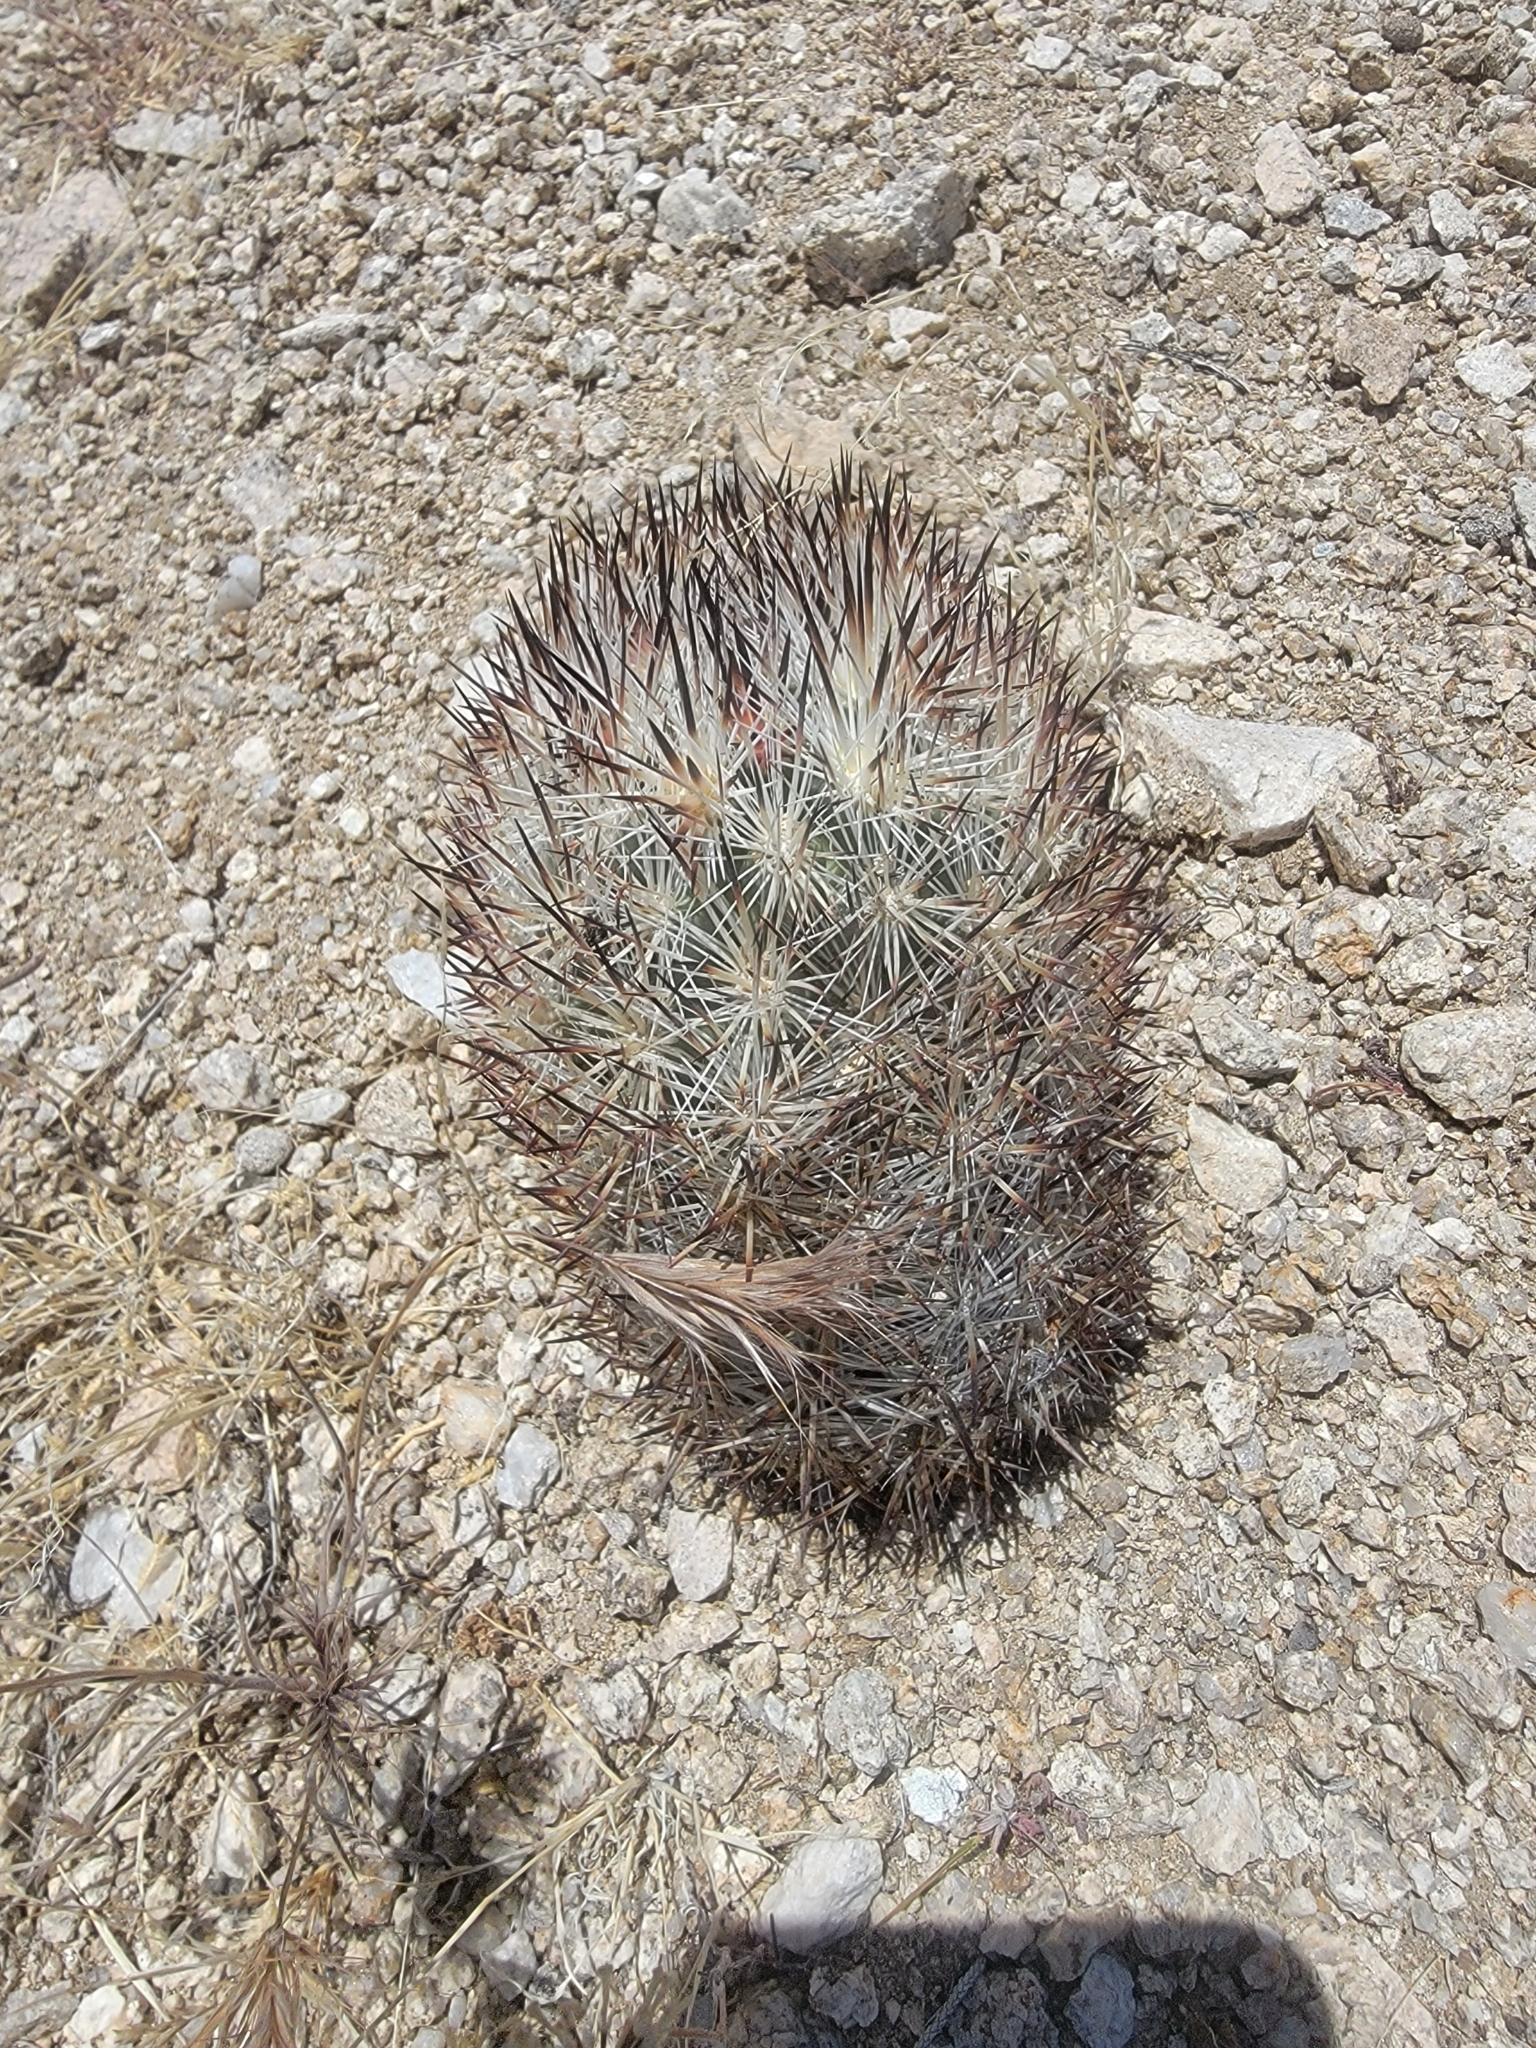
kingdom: Plantae
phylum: Tracheophyta
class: Magnoliopsida
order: Caryophyllales
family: Cactaceae
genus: Pelecyphora
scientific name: Pelecyphora alversonii
